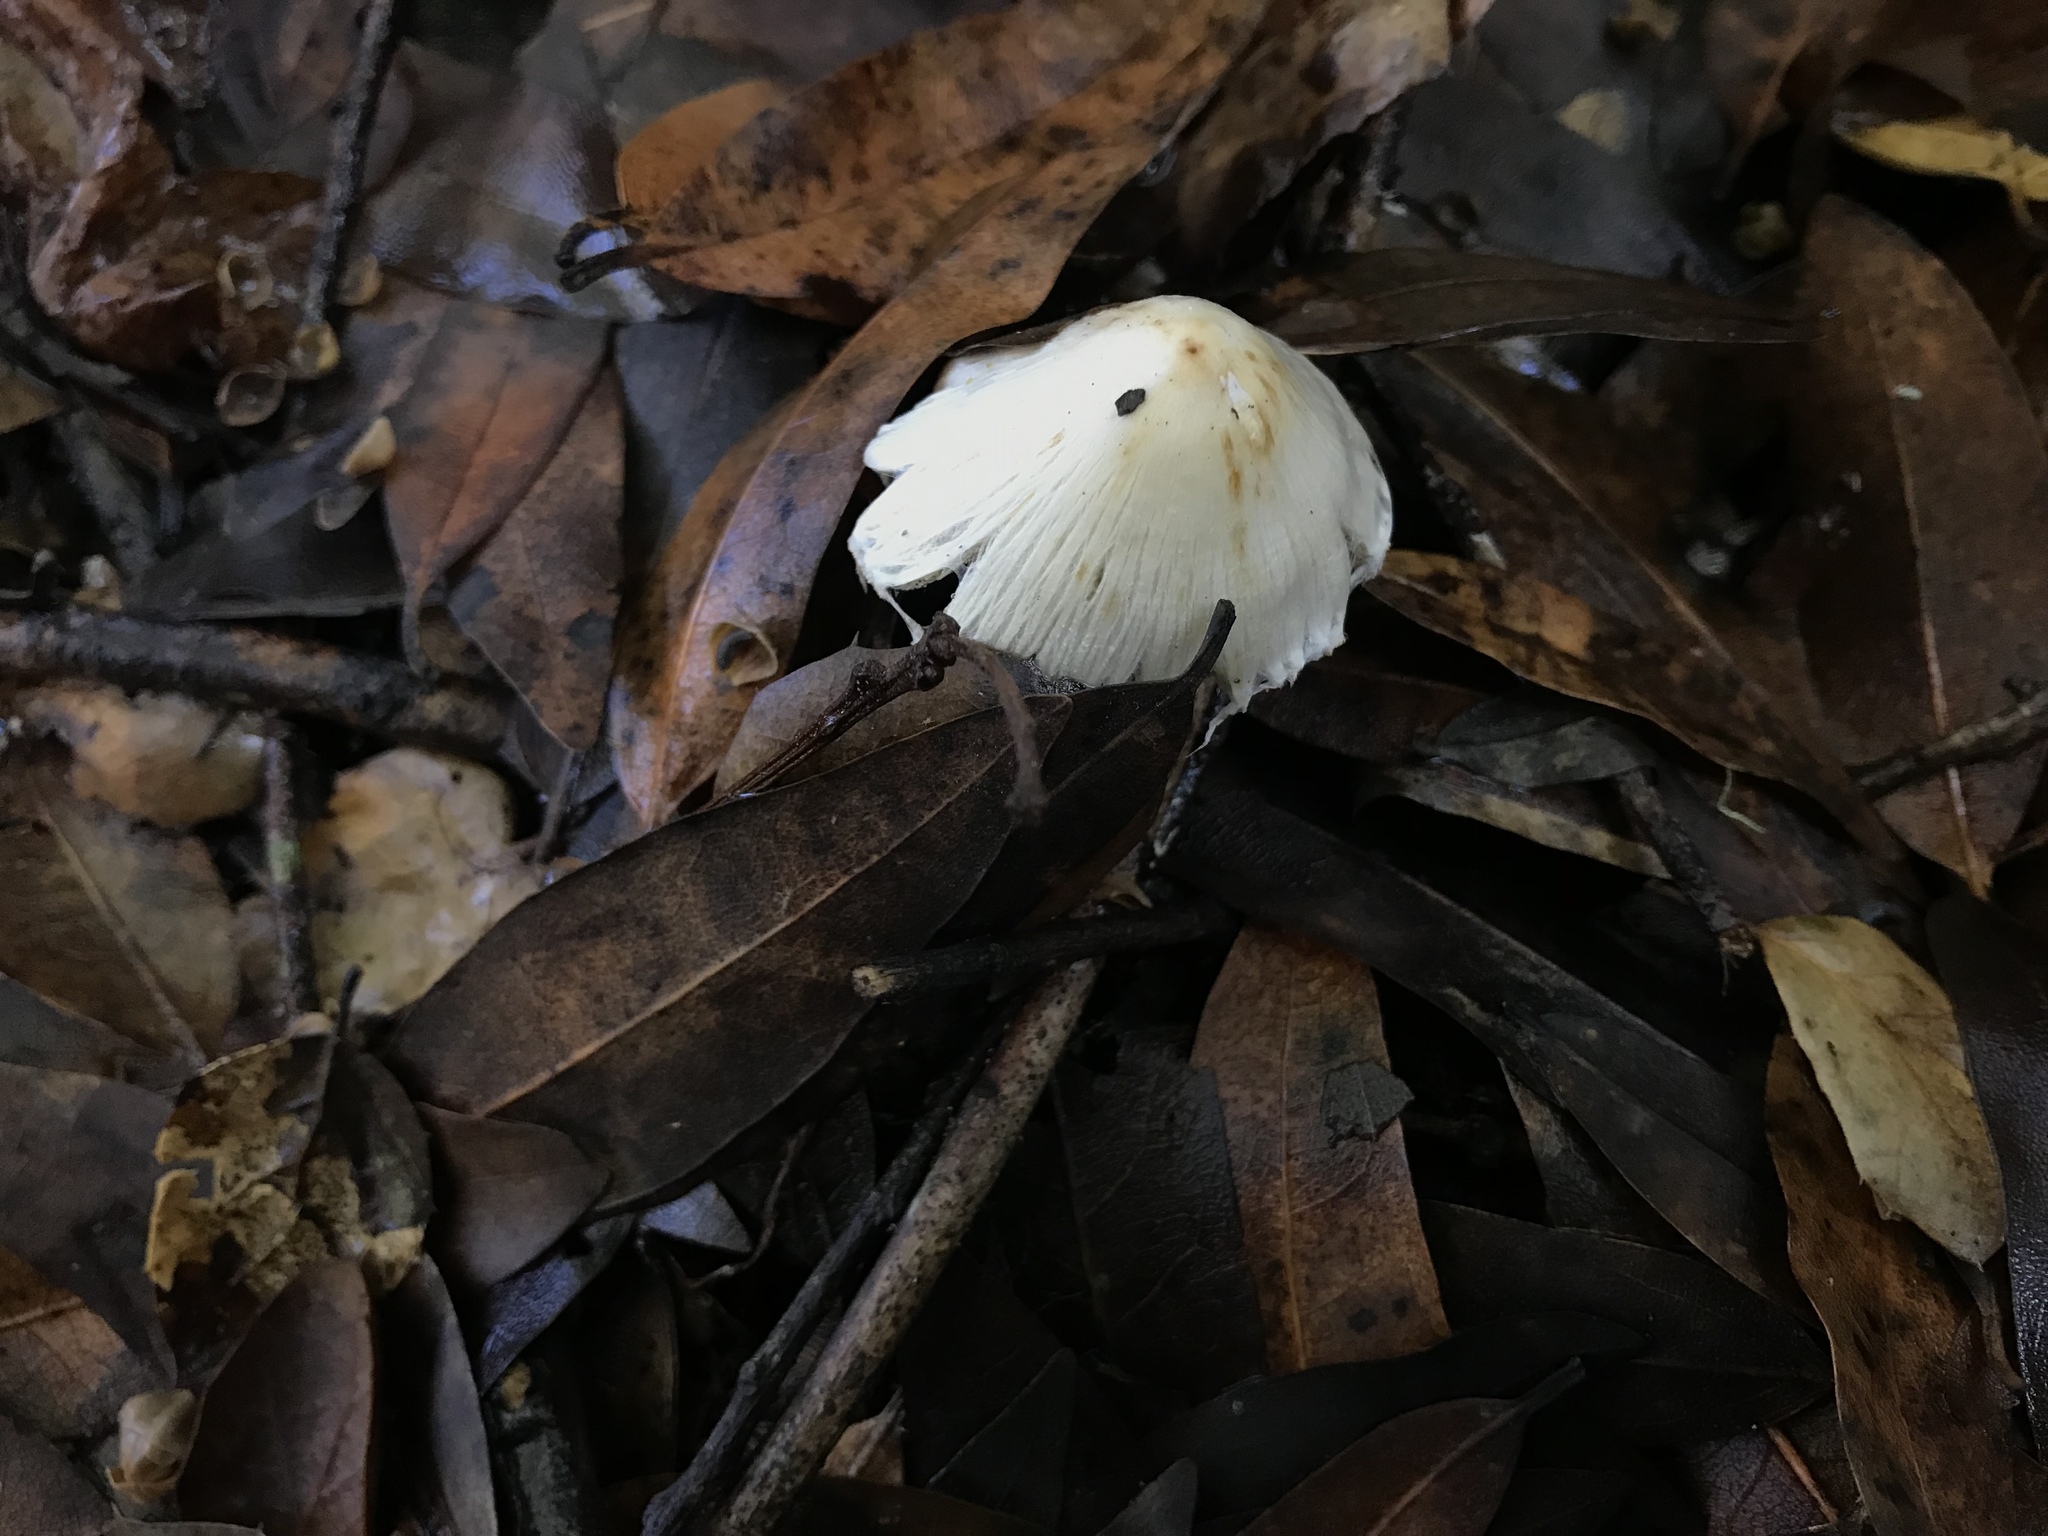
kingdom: Fungi
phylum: Basidiomycota
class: Agaricomycetes
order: Agaricales
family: Inocybaceae
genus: Pseudosperma
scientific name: Pseudosperma sororium
